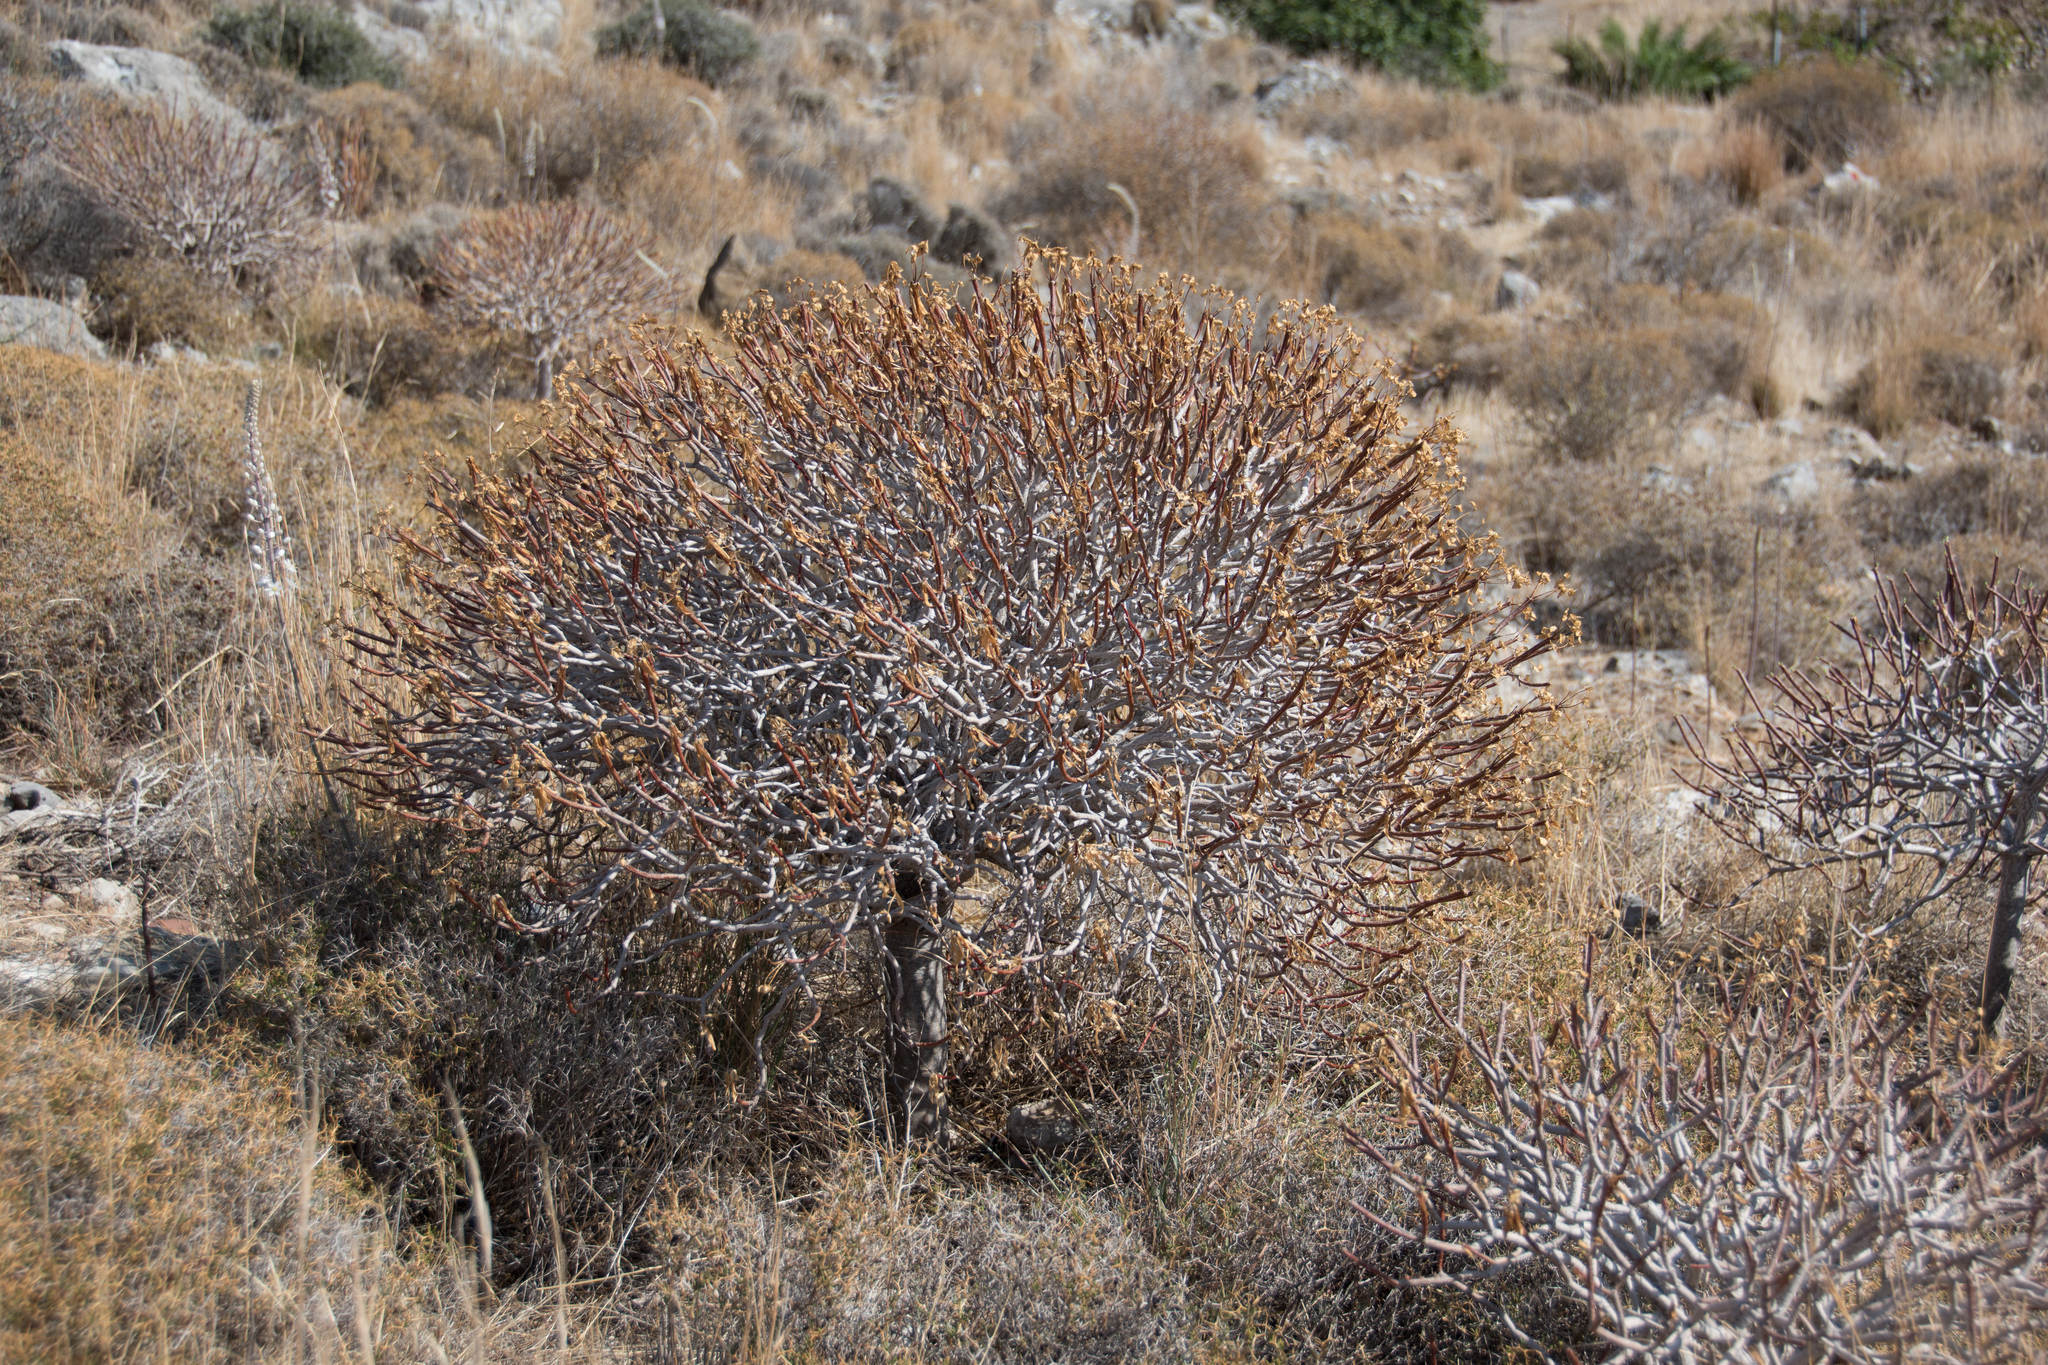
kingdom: Plantae
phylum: Tracheophyta
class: Magnoliopsida
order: Malpighiales
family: Euphorbiaceae
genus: Euphorbia
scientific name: Euphorbia dendroides
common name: Tree spurge
